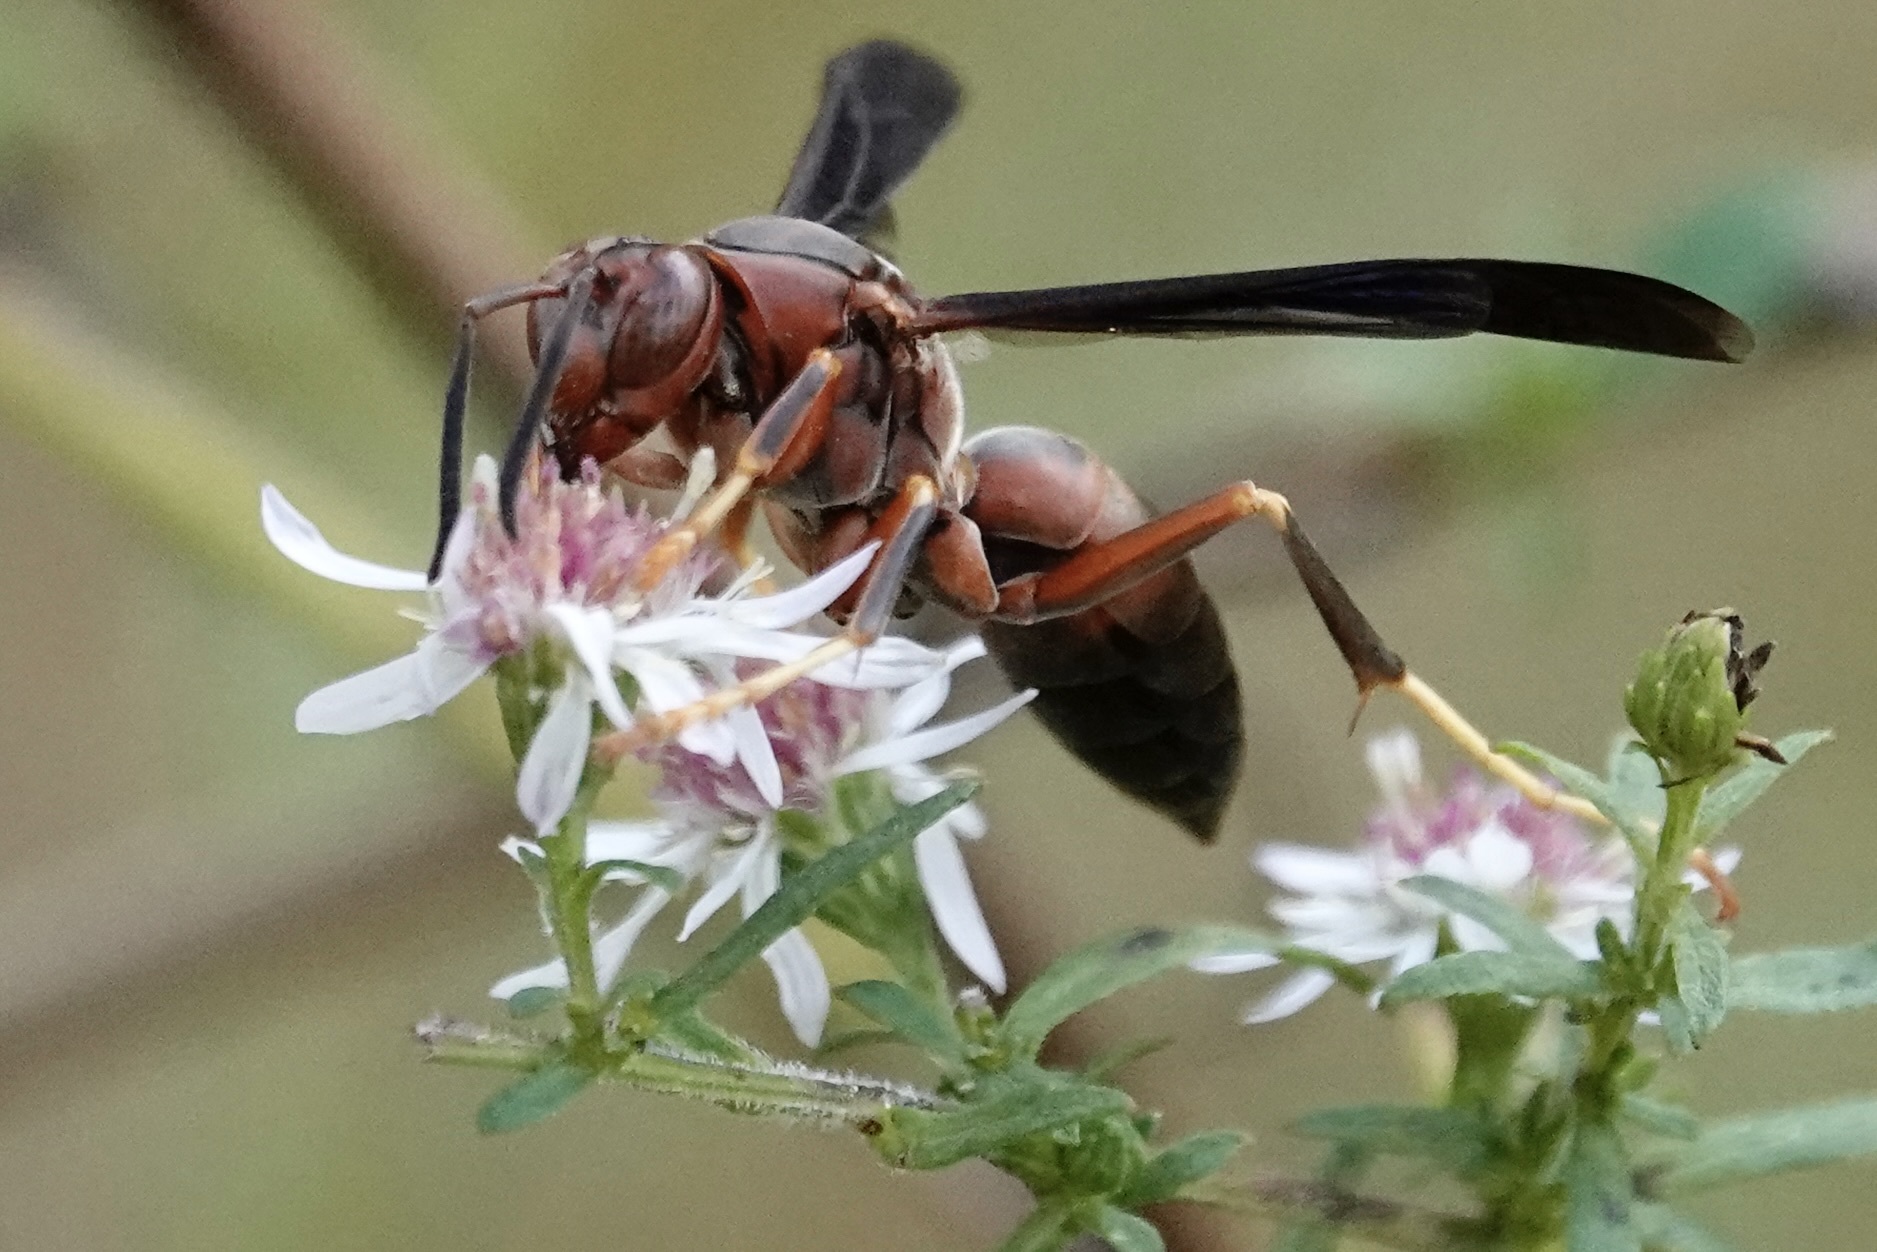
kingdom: Animalia
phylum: Arthropoda
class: Insecta
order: Hymenoptera
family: Eumenidae
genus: Polistes
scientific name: Polistes metricus
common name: Metric paper wasp
